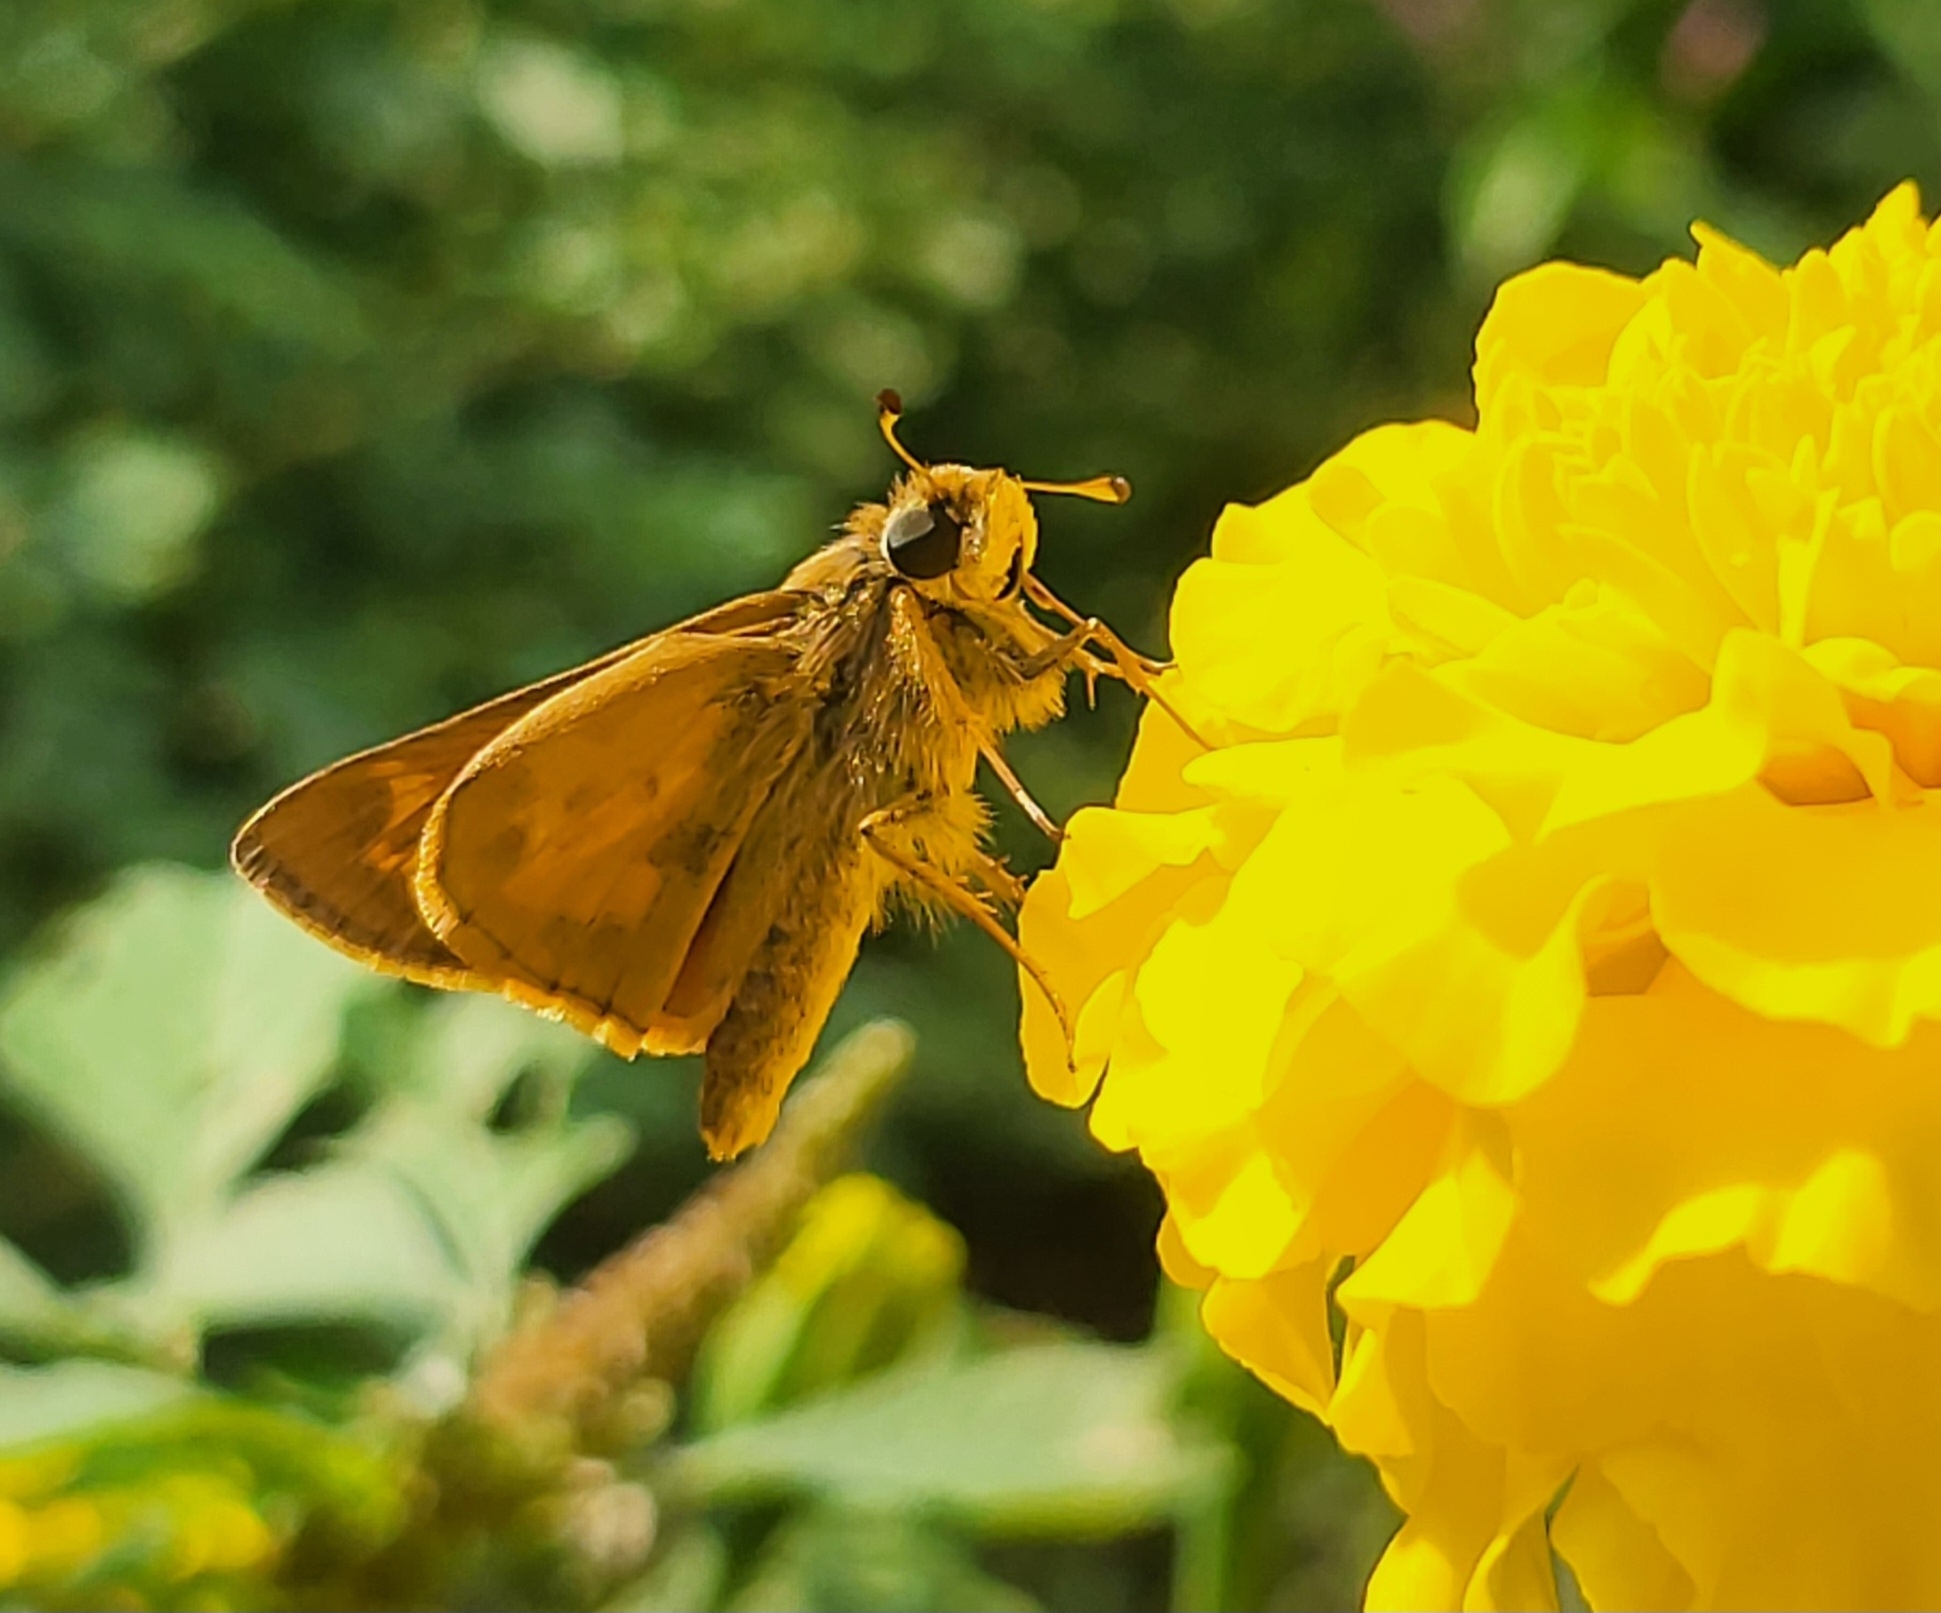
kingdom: Animalia
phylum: Arthropoda
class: Insecta
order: Lepidoptera
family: Hesperiidae
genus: Atalopedes
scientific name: Atalopedes
